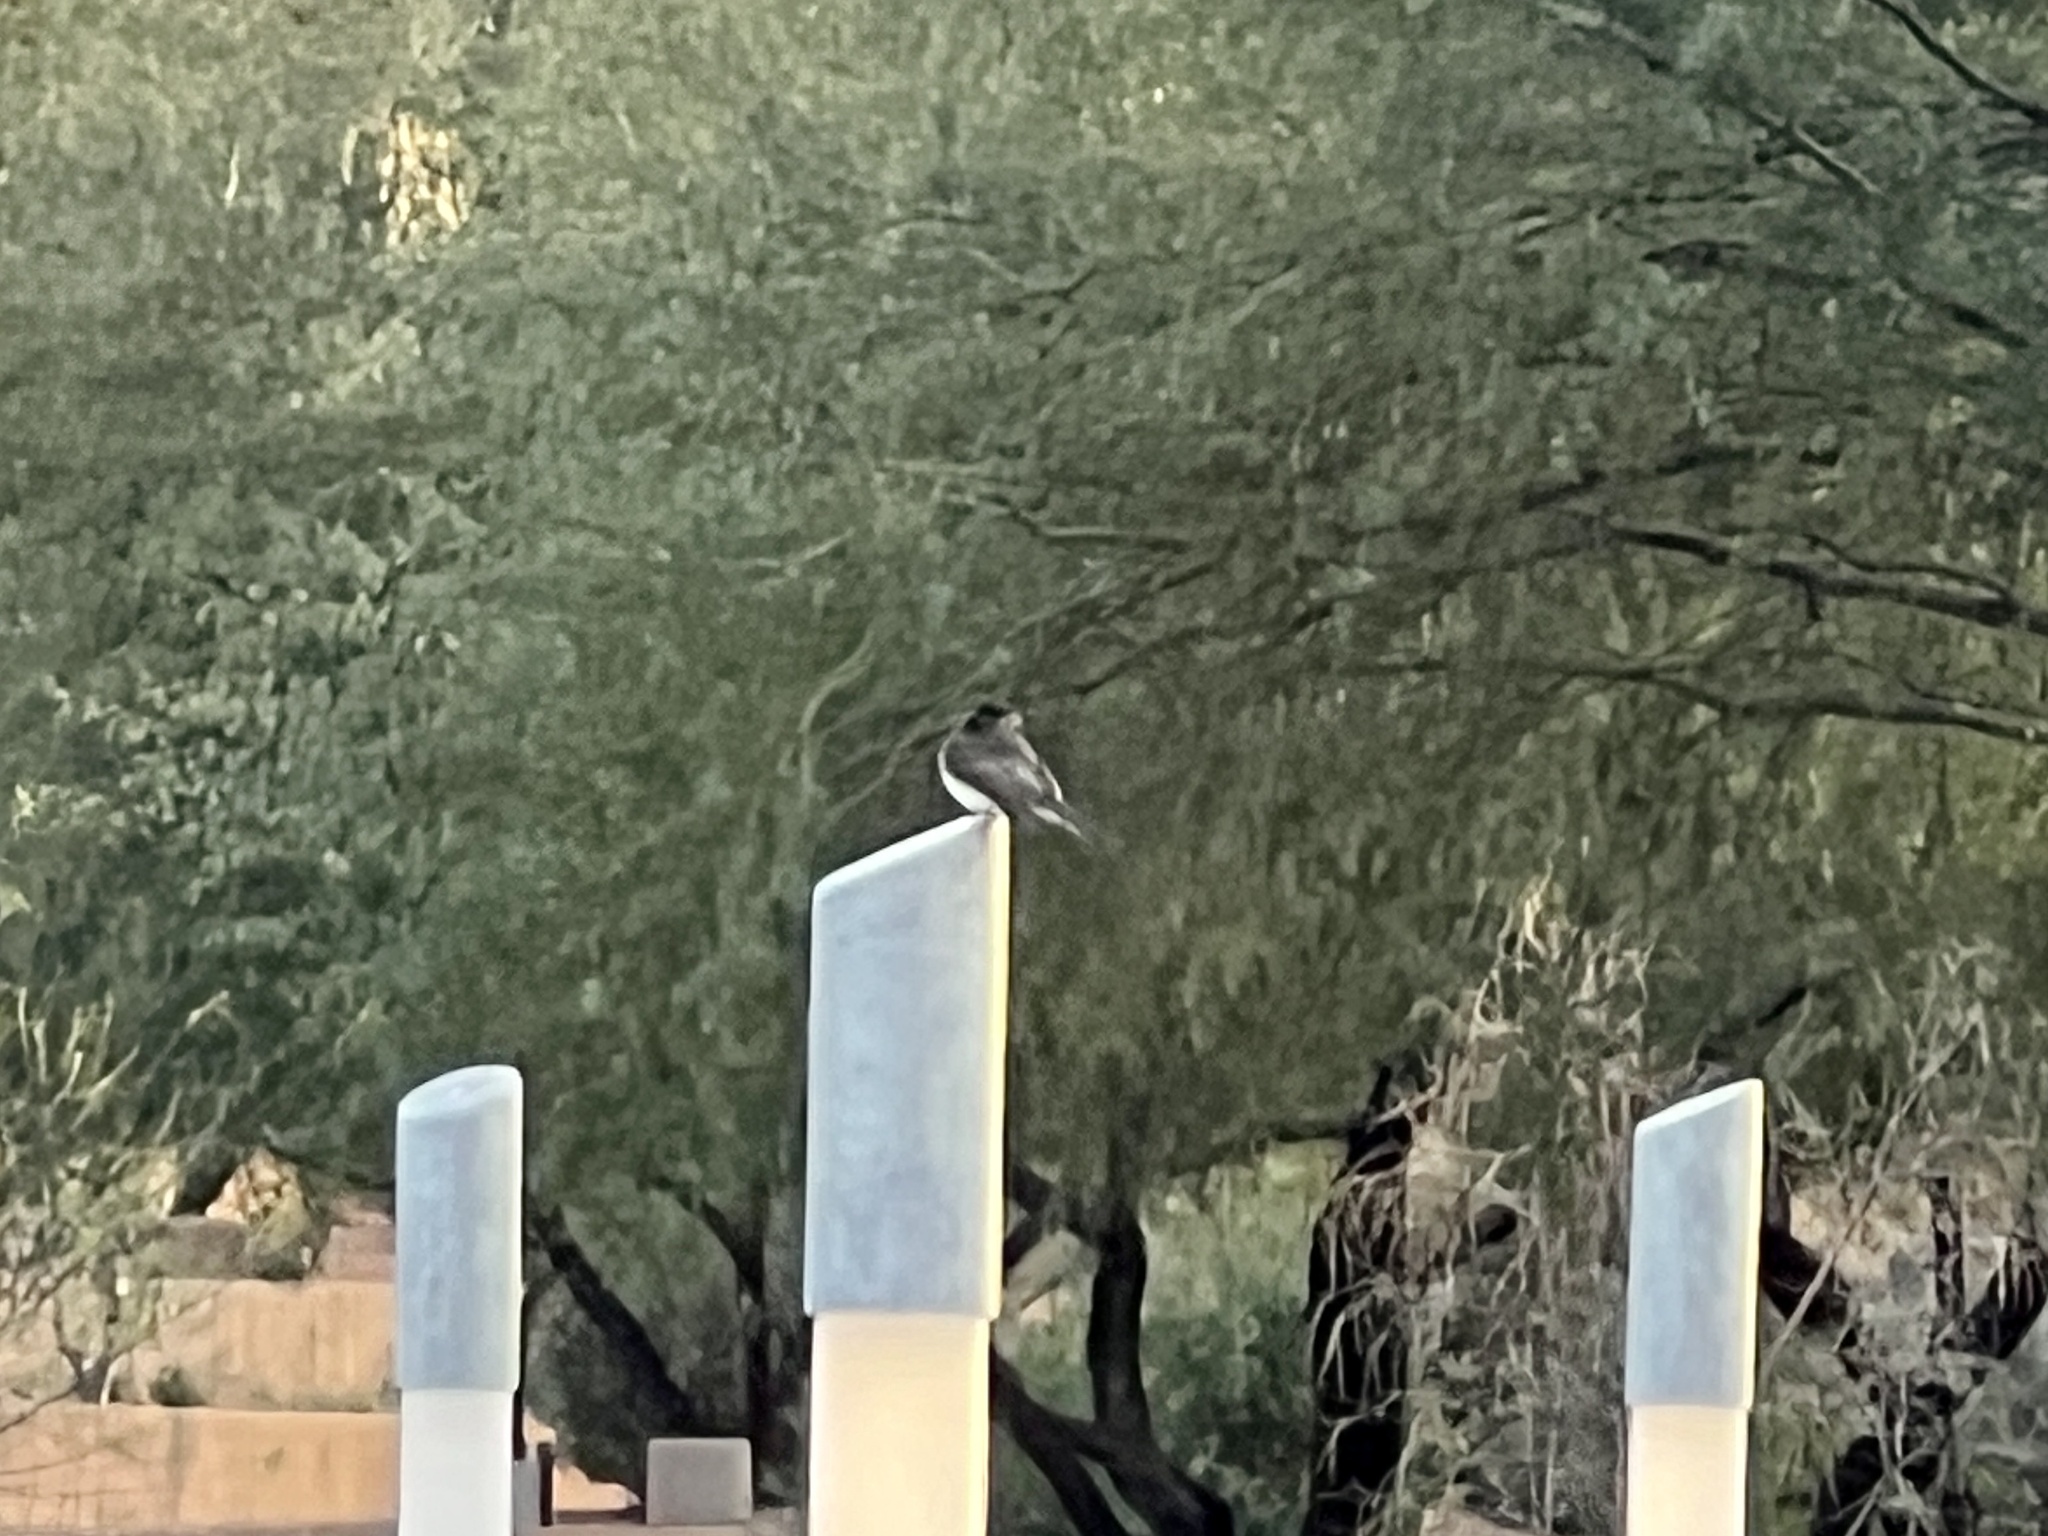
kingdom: Animalia
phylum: Chordata
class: Aves
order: Passeriformes
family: Tyrannidae
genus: Sayornis
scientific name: Sayornis nigricans
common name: Black phoebe
